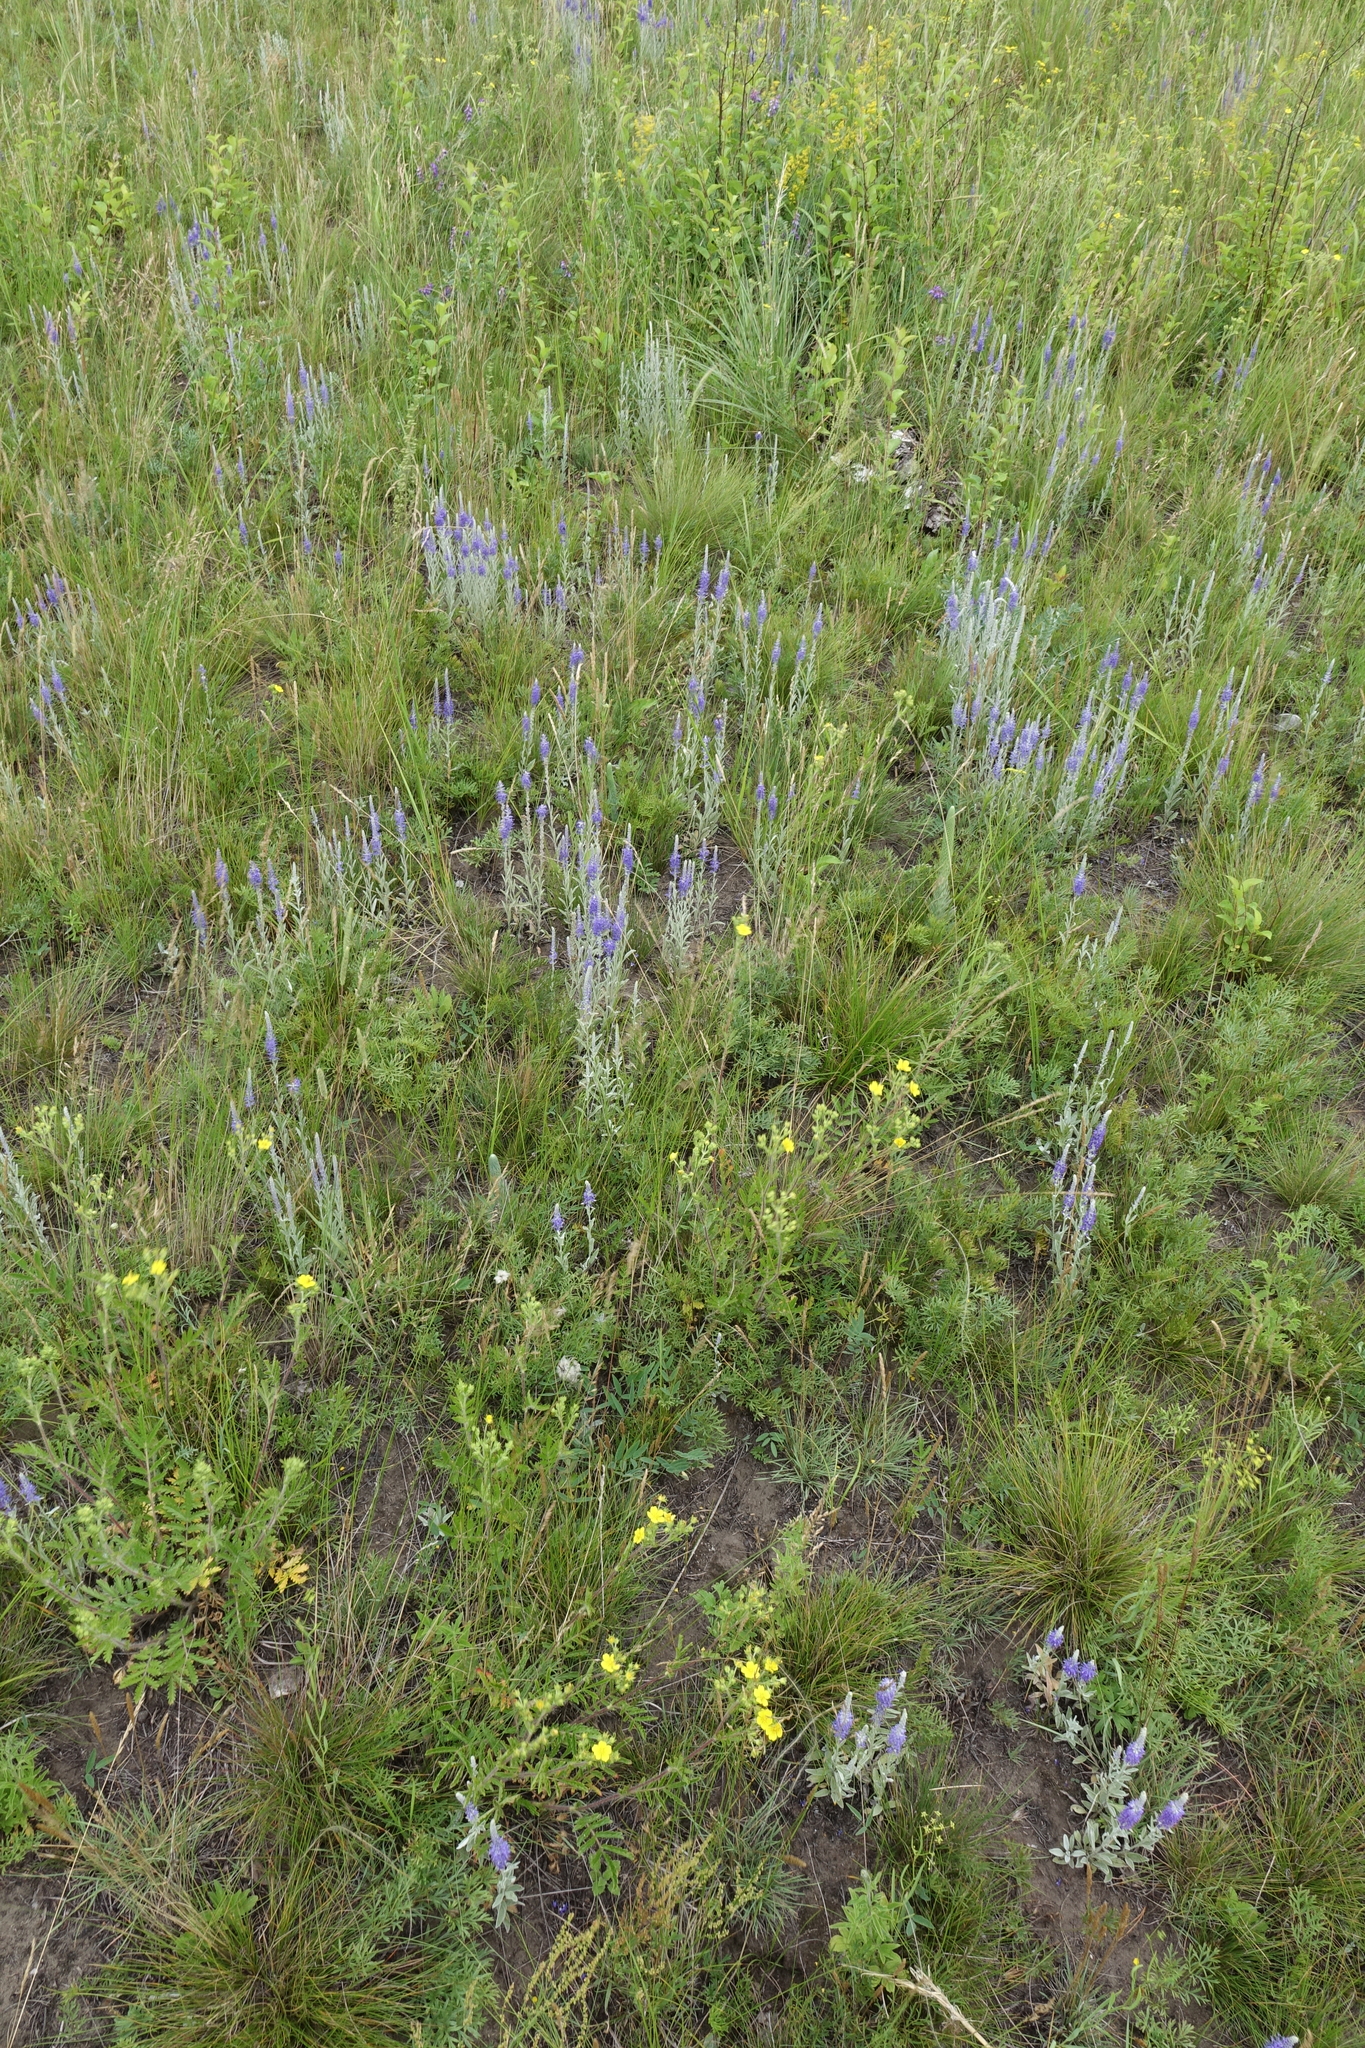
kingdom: Plantae
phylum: Tracheophyta
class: Magnoliopsida
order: Lamiales
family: Plantaginaceae
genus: Veronica
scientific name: Veronica incana
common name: Silver speedwell
